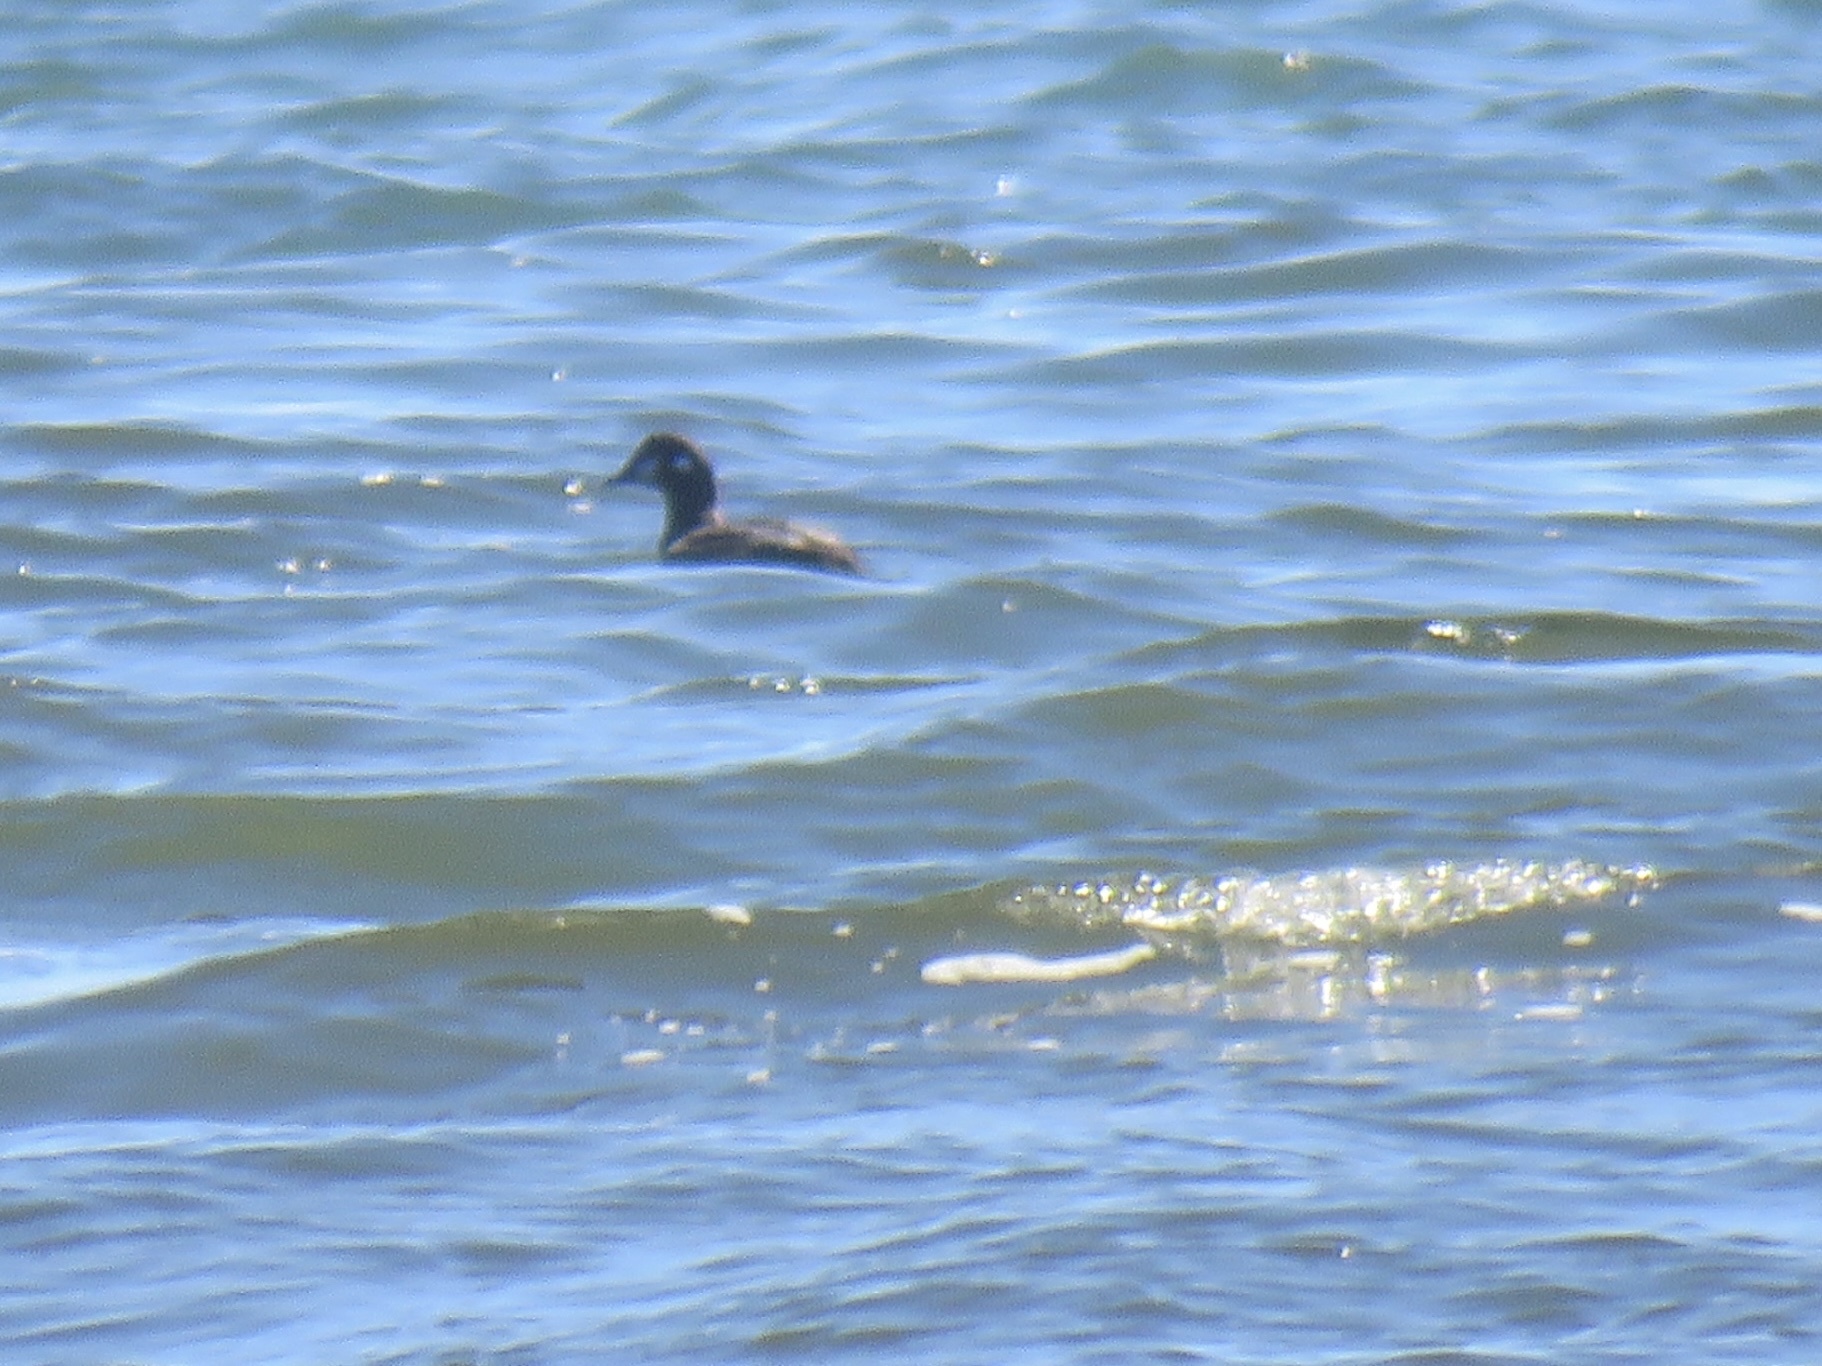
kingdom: Animalia
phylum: Chordata
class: Aves
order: Anseriformes
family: Anatidae
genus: Histrionicus
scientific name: Histrionicus histrionicus
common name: Harlequin duck
